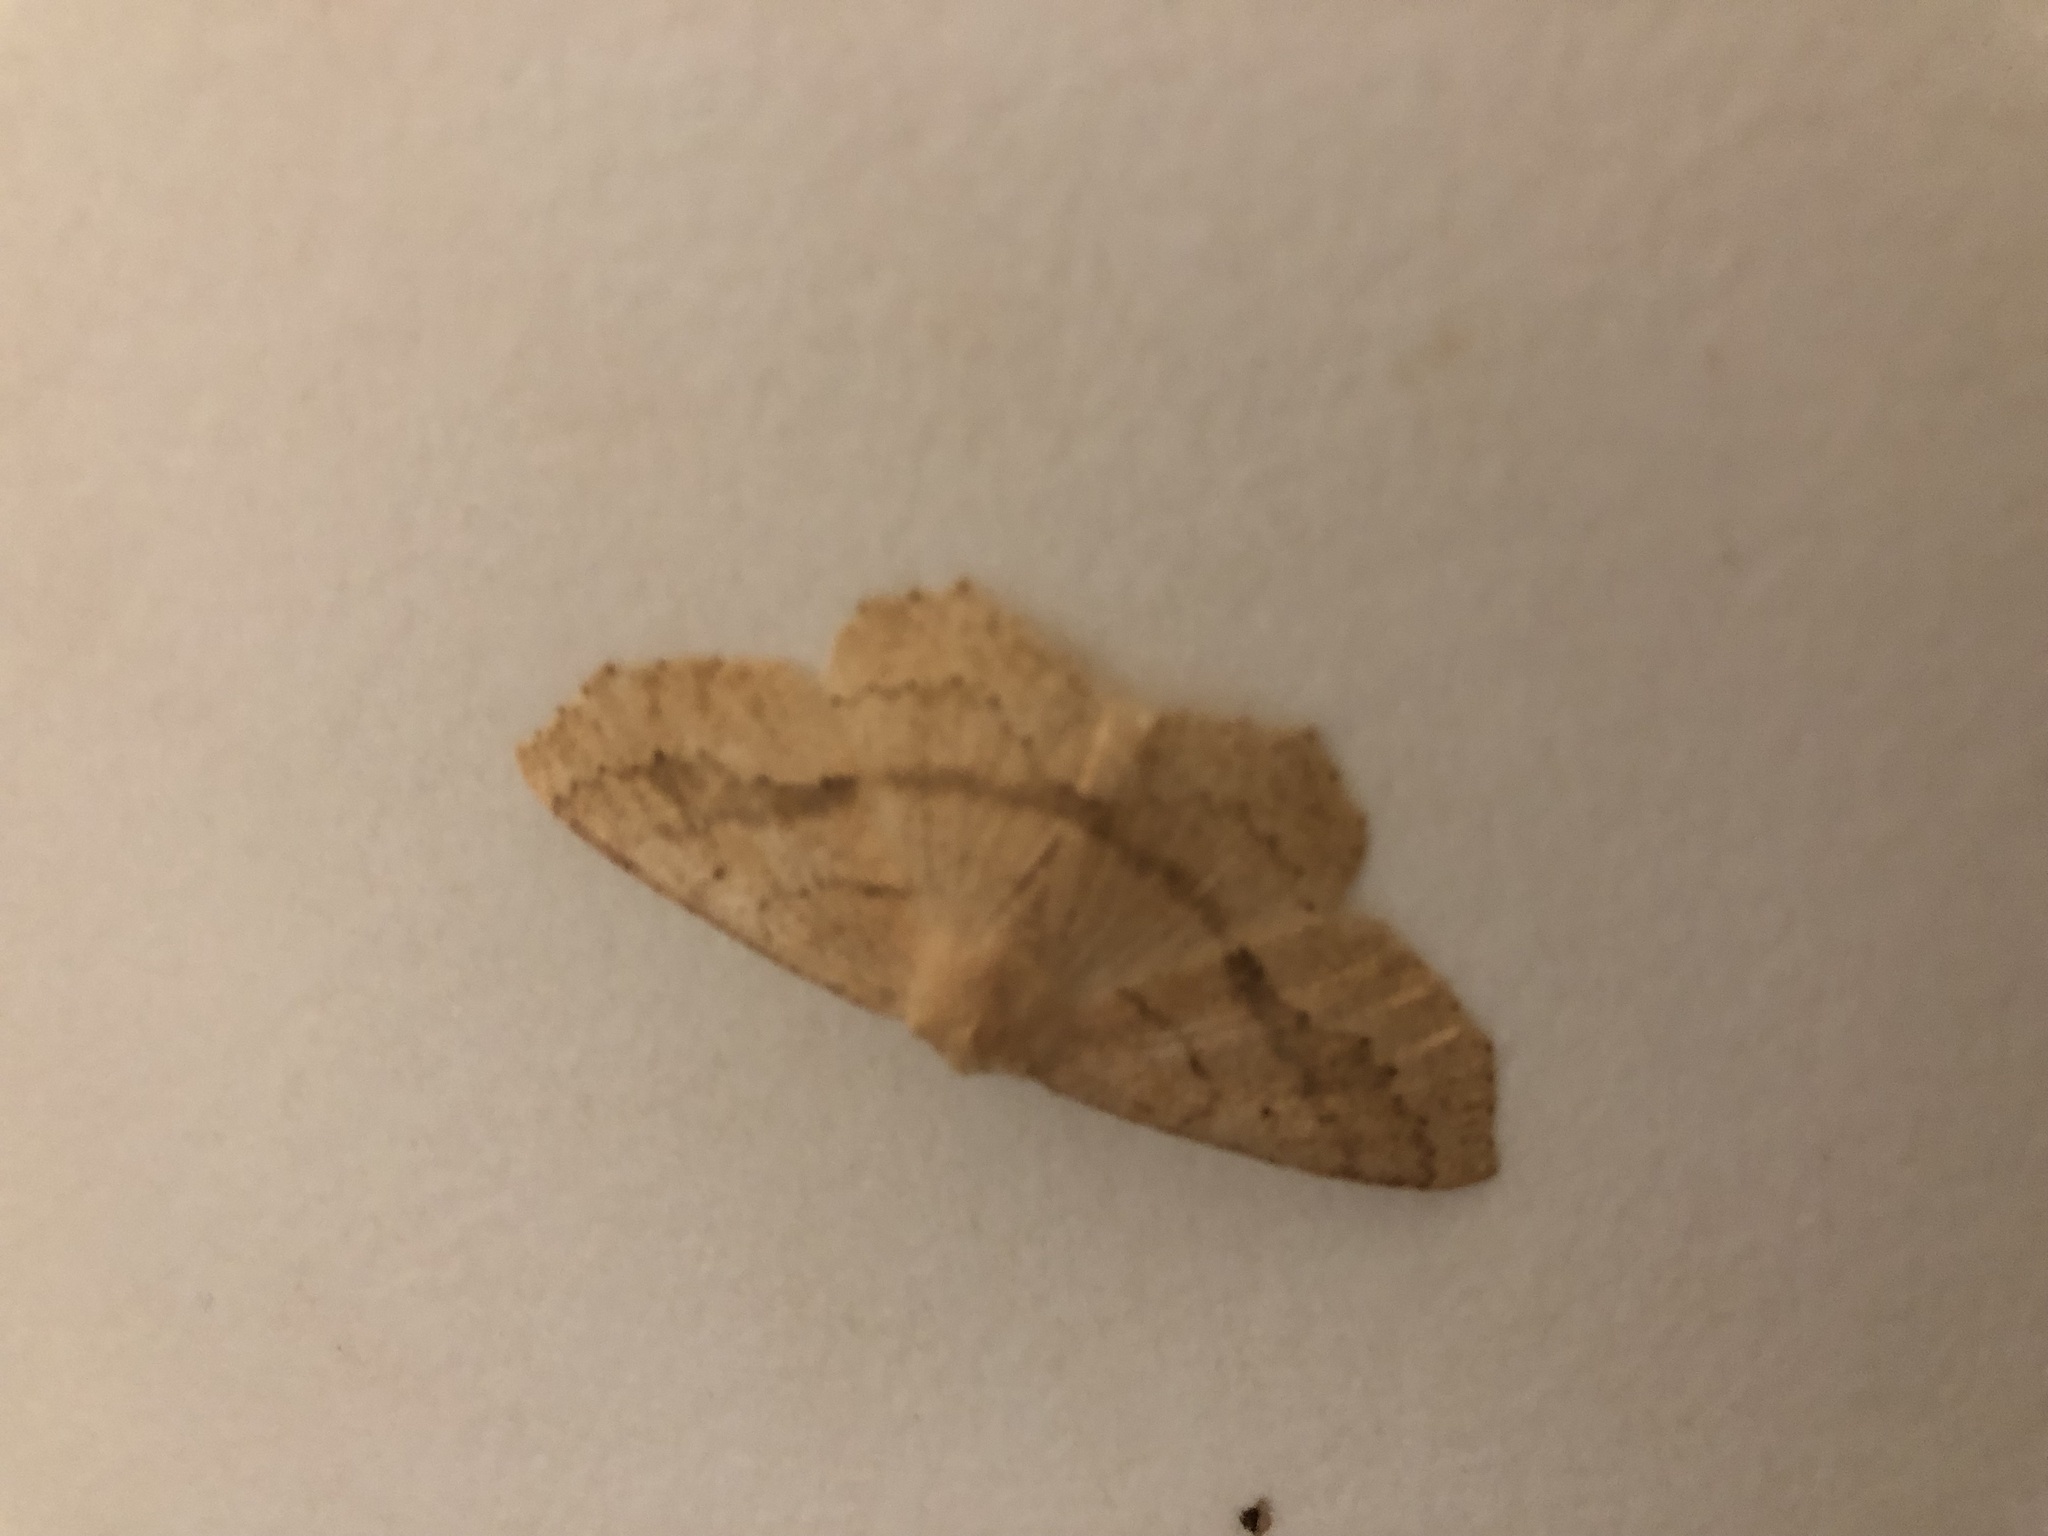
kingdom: Animalia
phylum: Arthropoda
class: Insecta
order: Lepidoptera
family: Geometridae
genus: Sabulodes
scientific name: Sabulodes aegrotata
